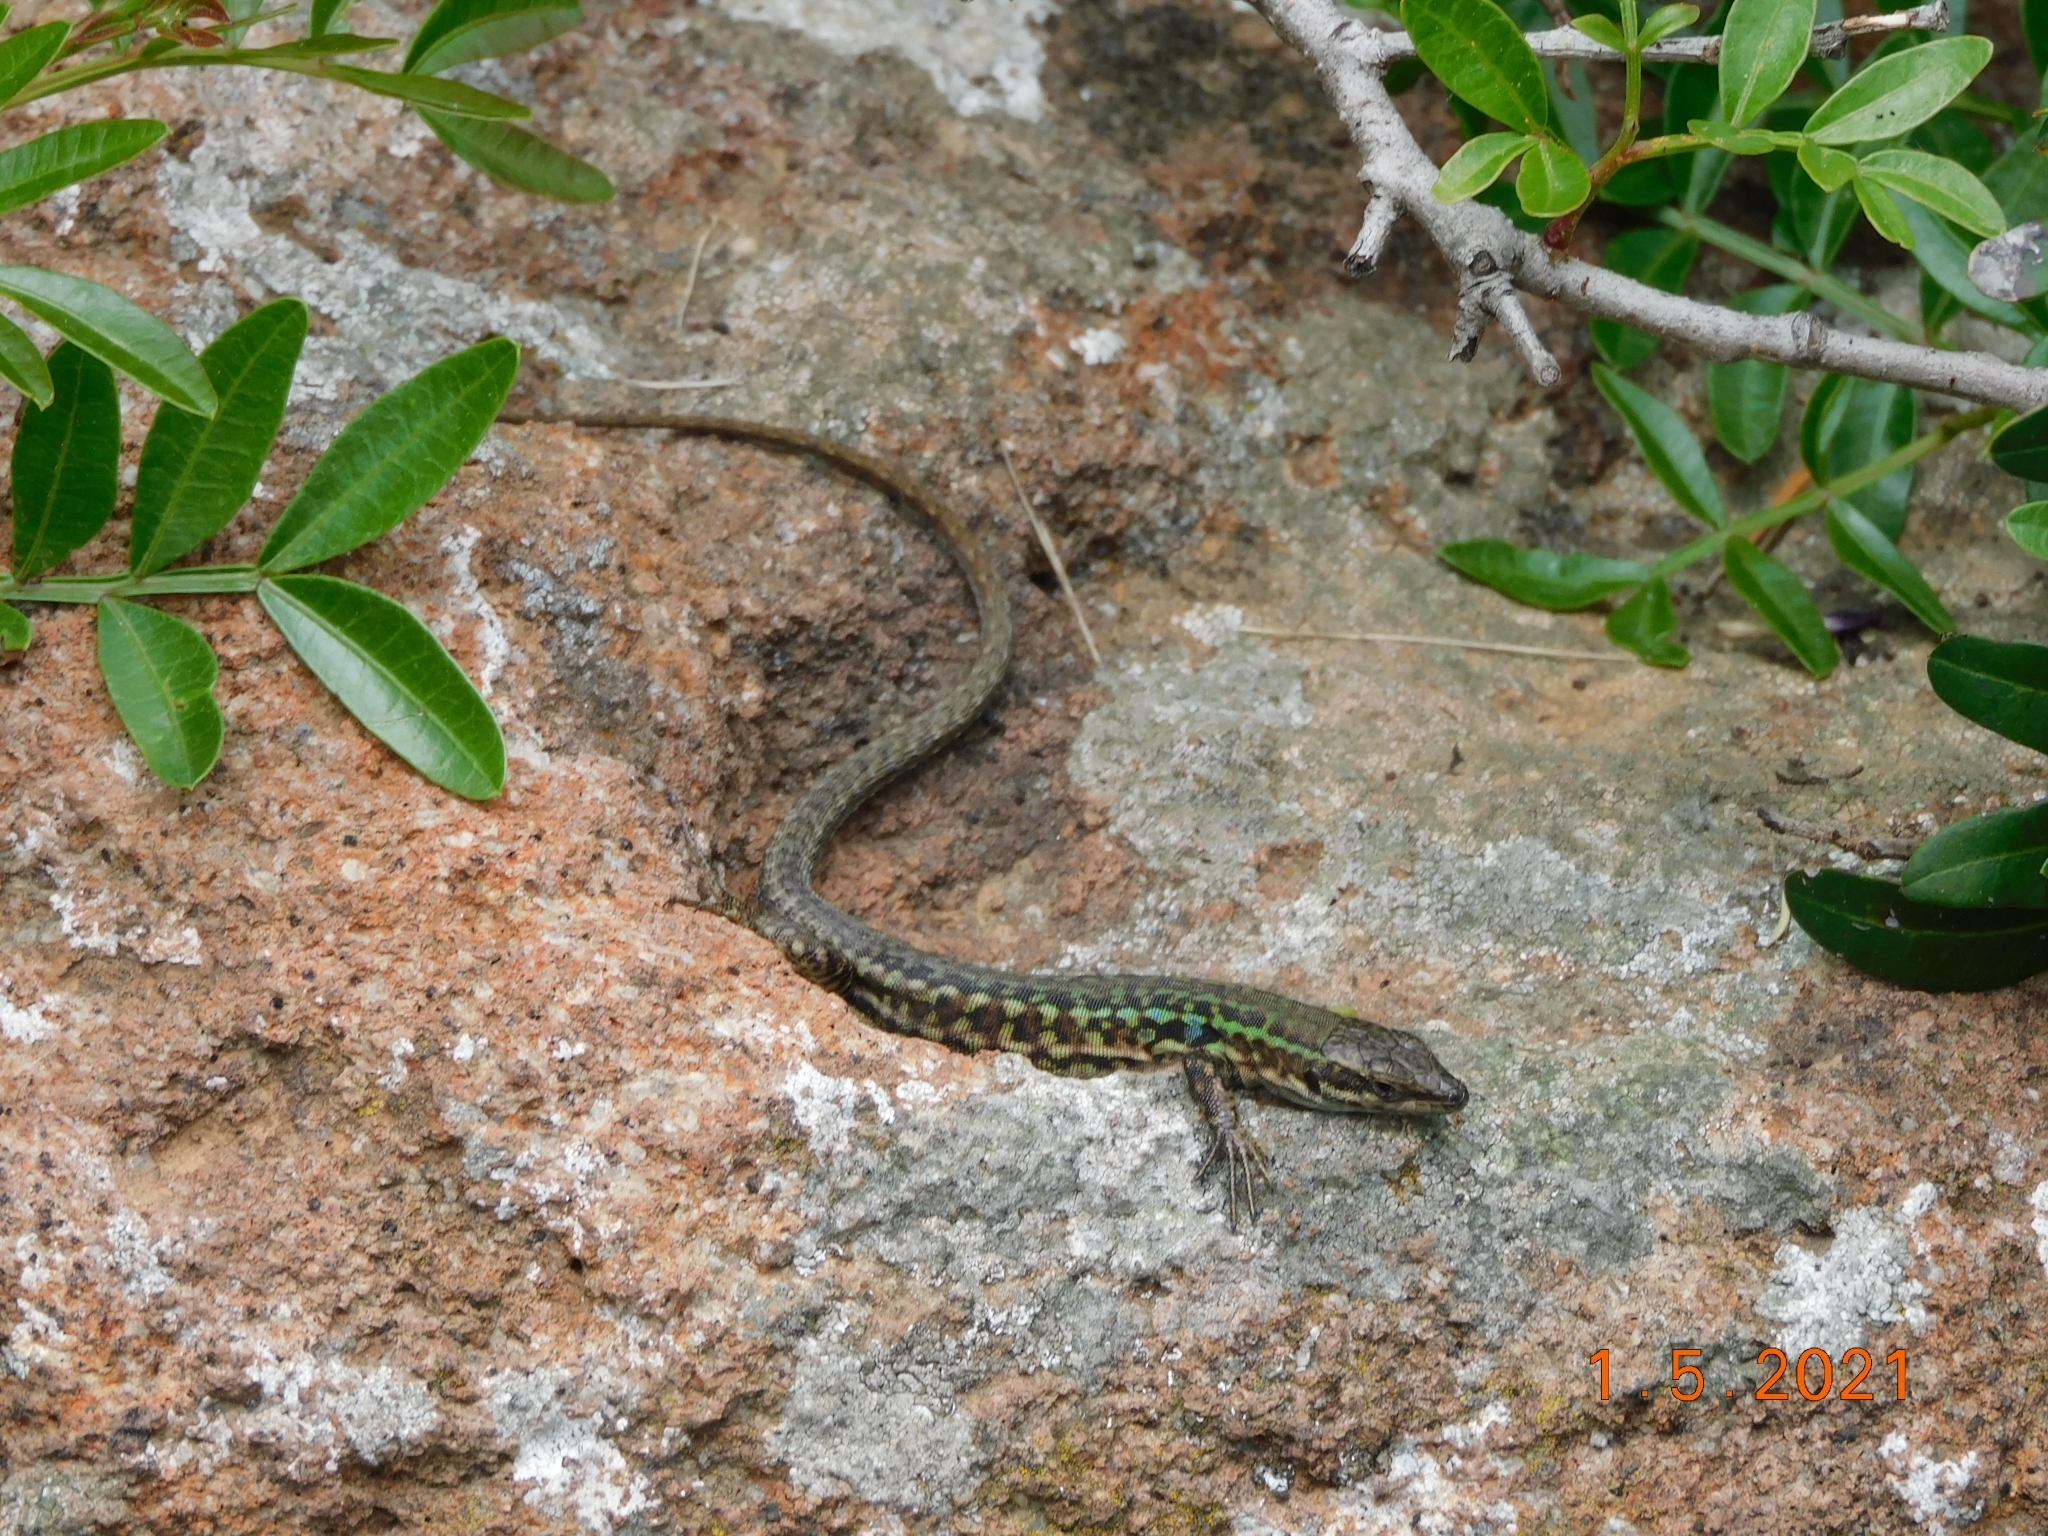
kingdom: Animalia
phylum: Chordata
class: Squamata
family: Lacertidae
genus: Podarcis
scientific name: Podarcis siculus
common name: Italian wall lizard
